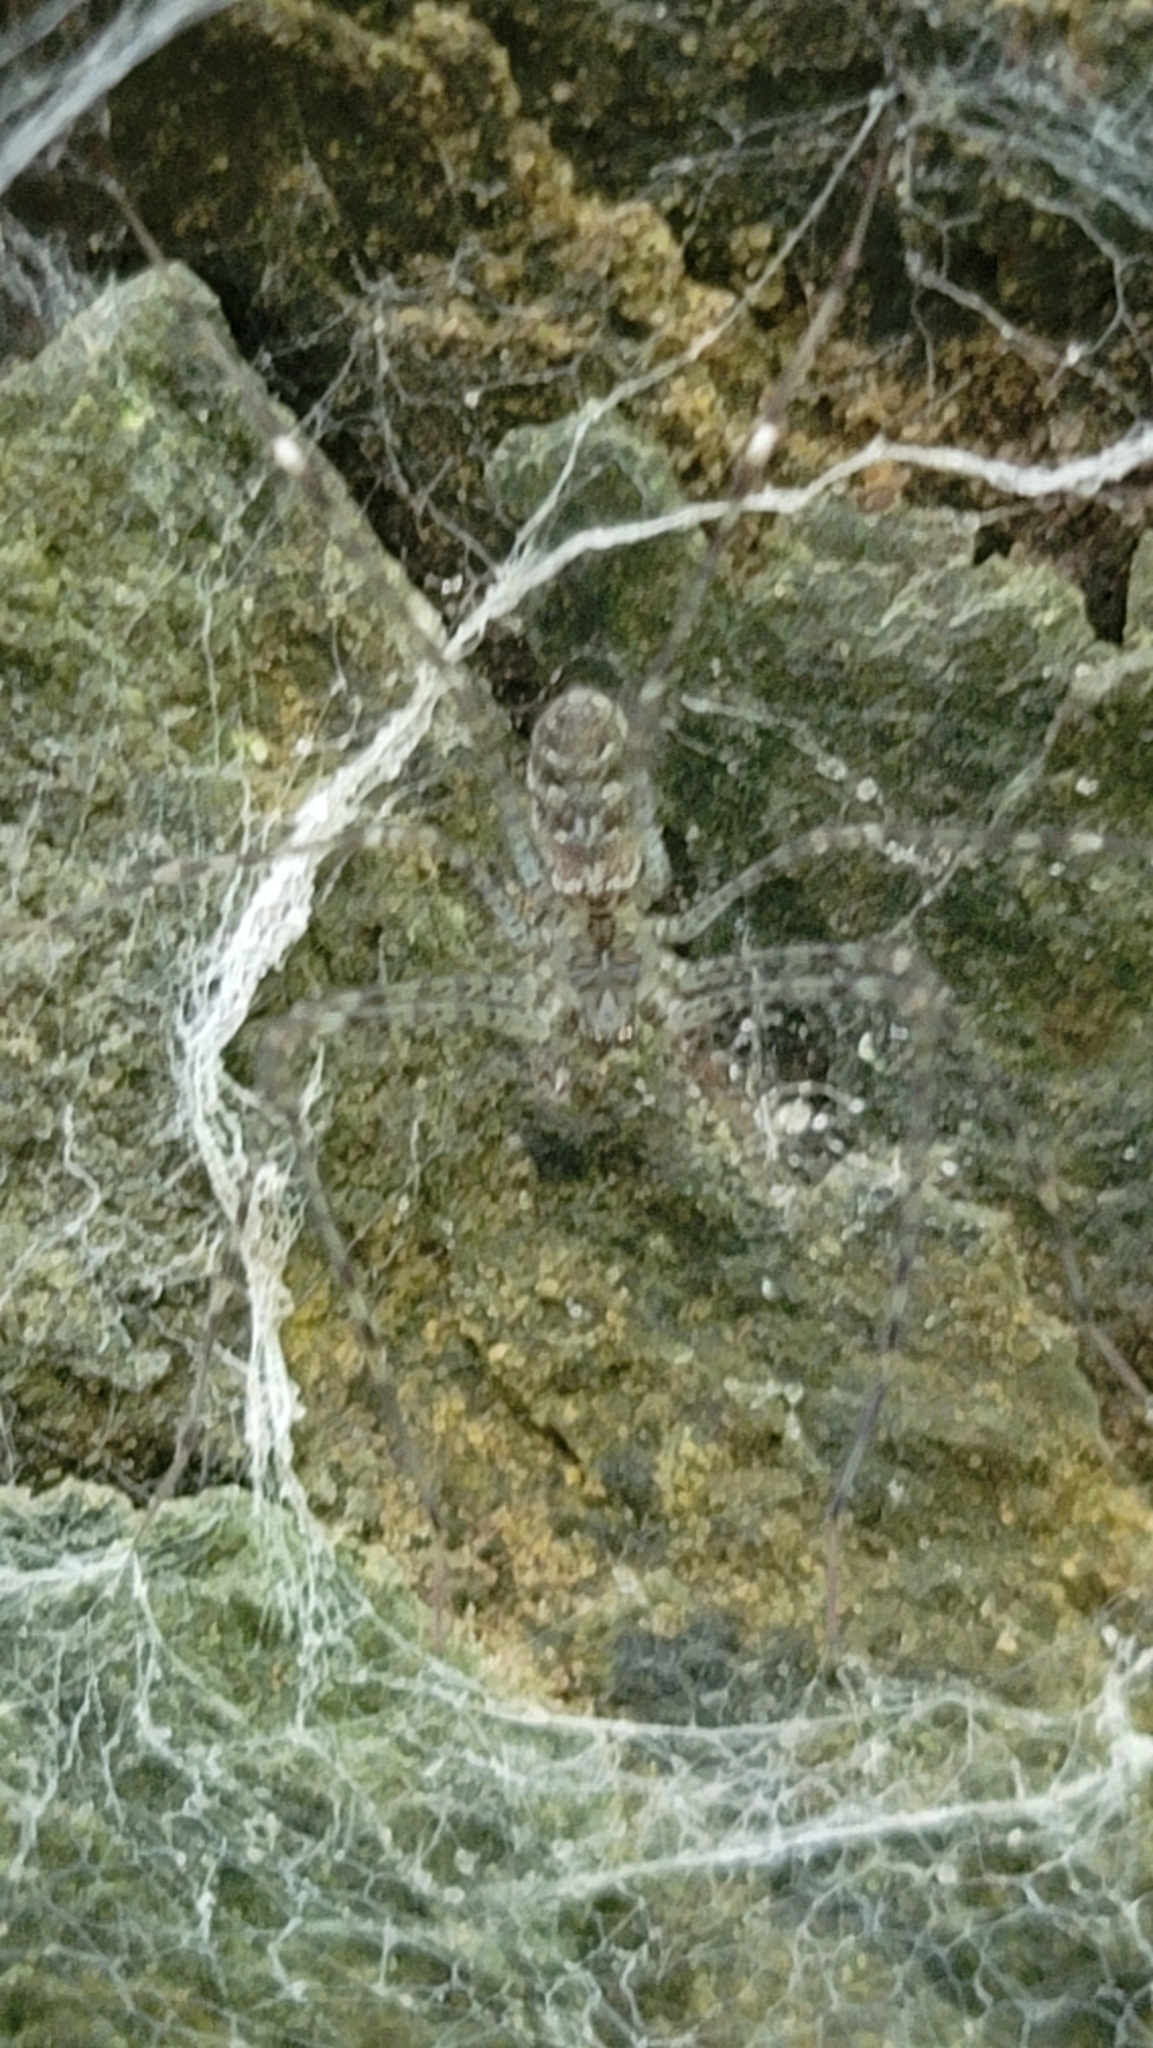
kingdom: Animalia
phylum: Arthropoda
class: Arachnida
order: Araneae
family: Hypochilidae
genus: Hypochilus
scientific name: Hypochilus pococki
